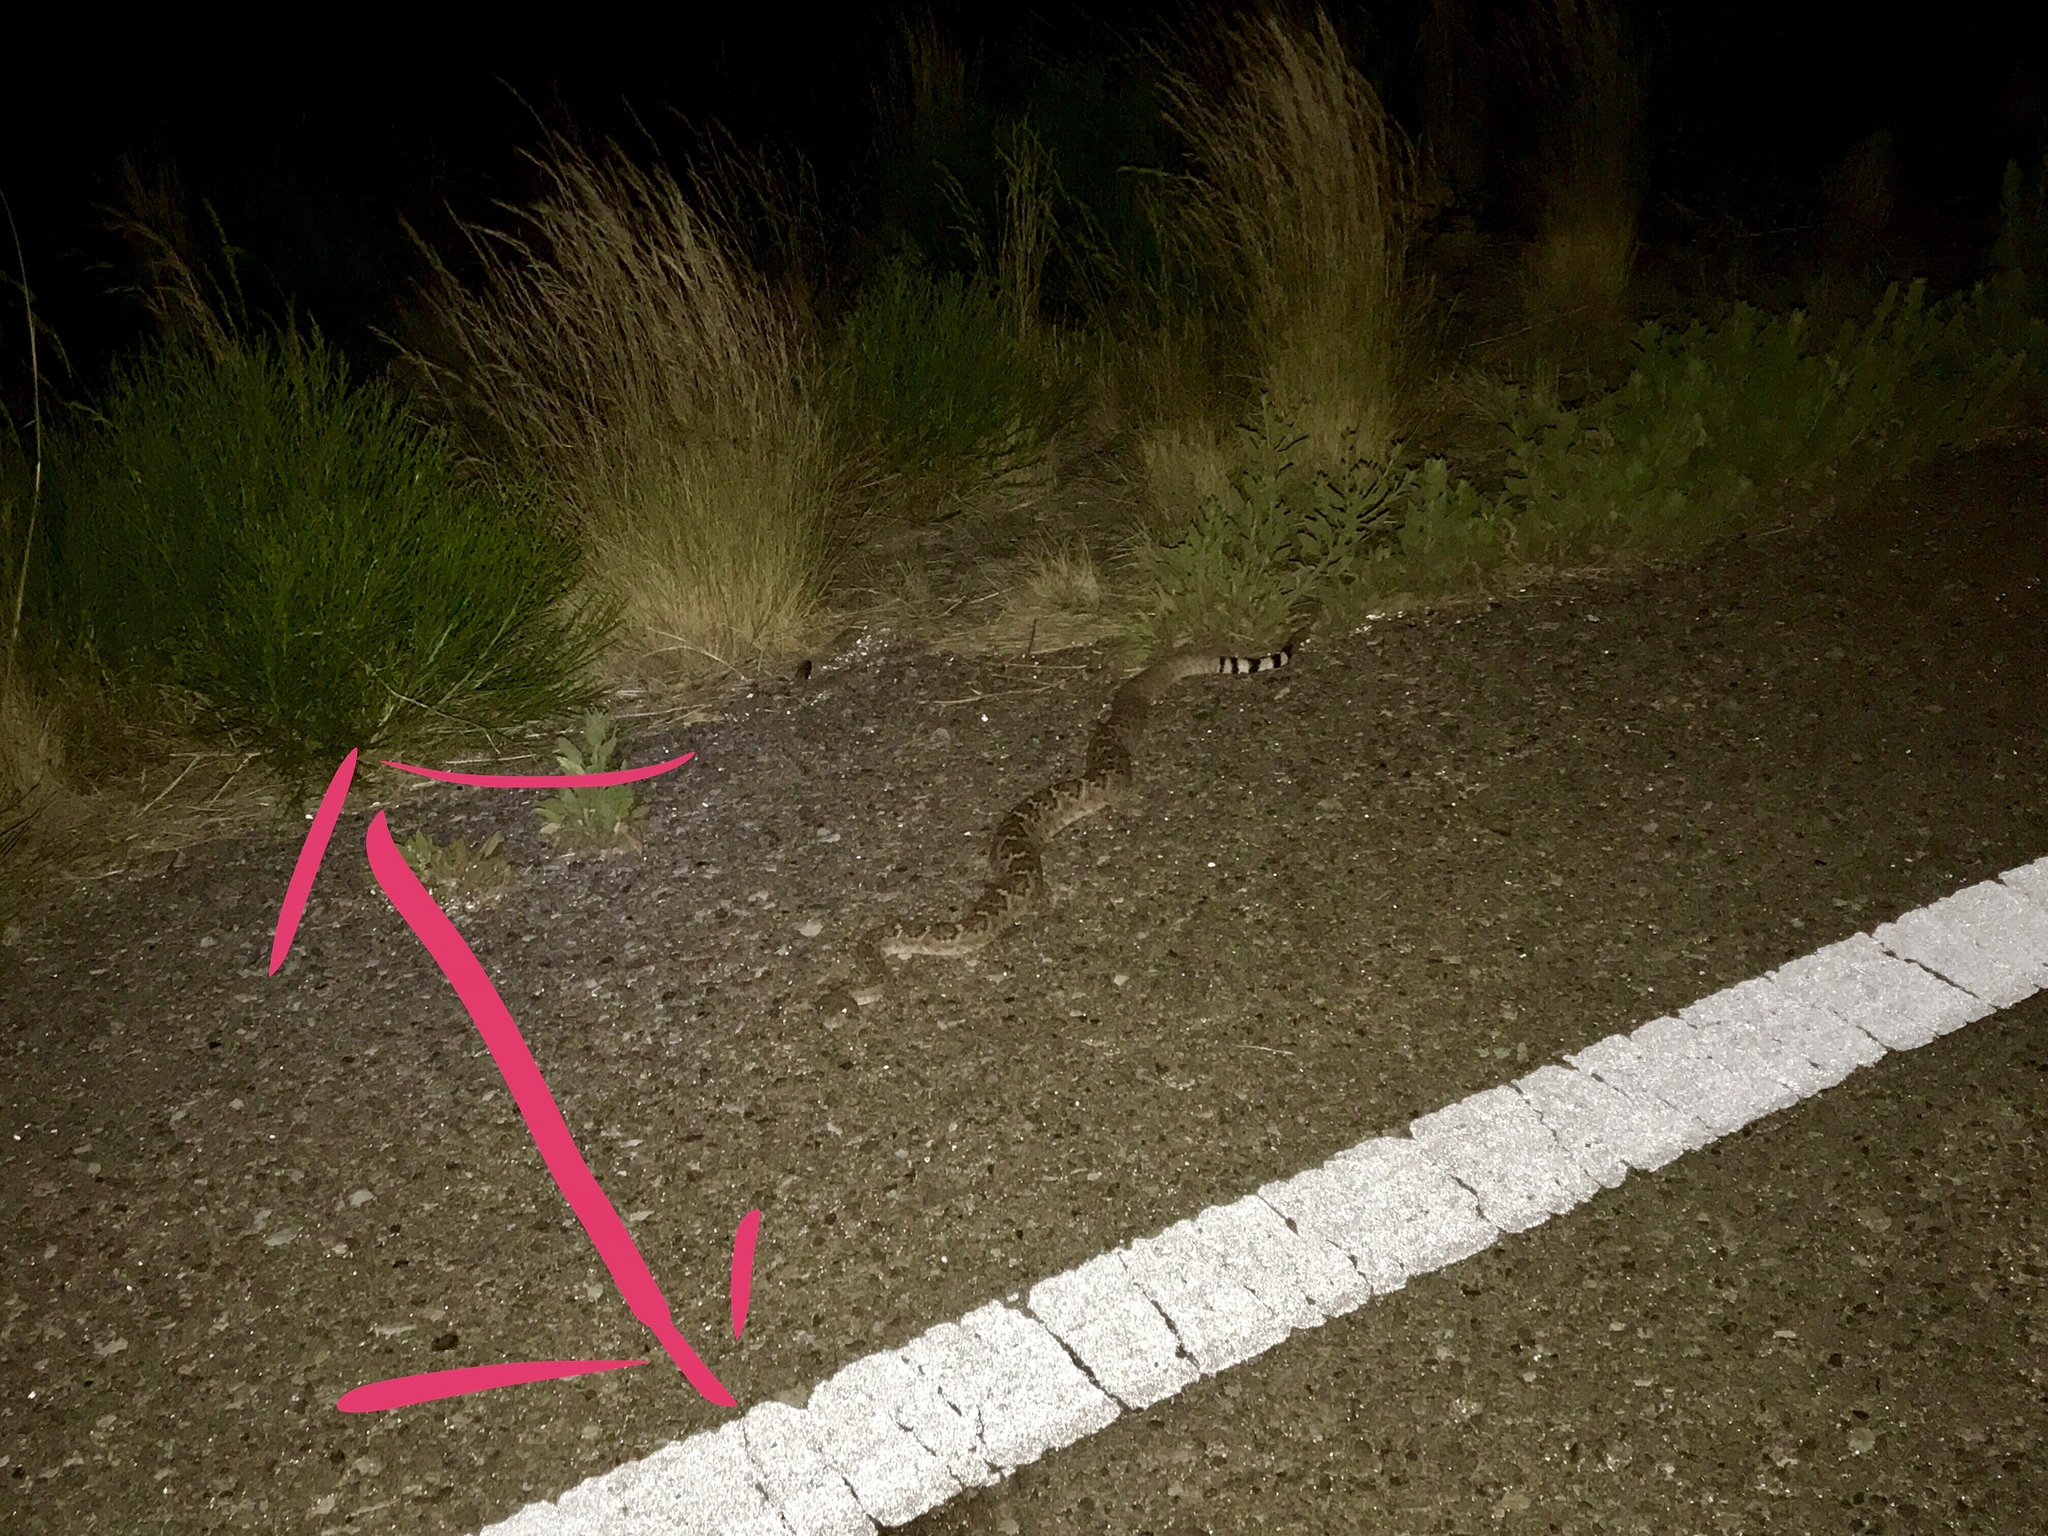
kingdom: Animalia
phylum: Chordata
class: Squamata
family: Viperidae
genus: Crotalus
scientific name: Crotalus atrox
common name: Western diamond-backed rattlesnake
